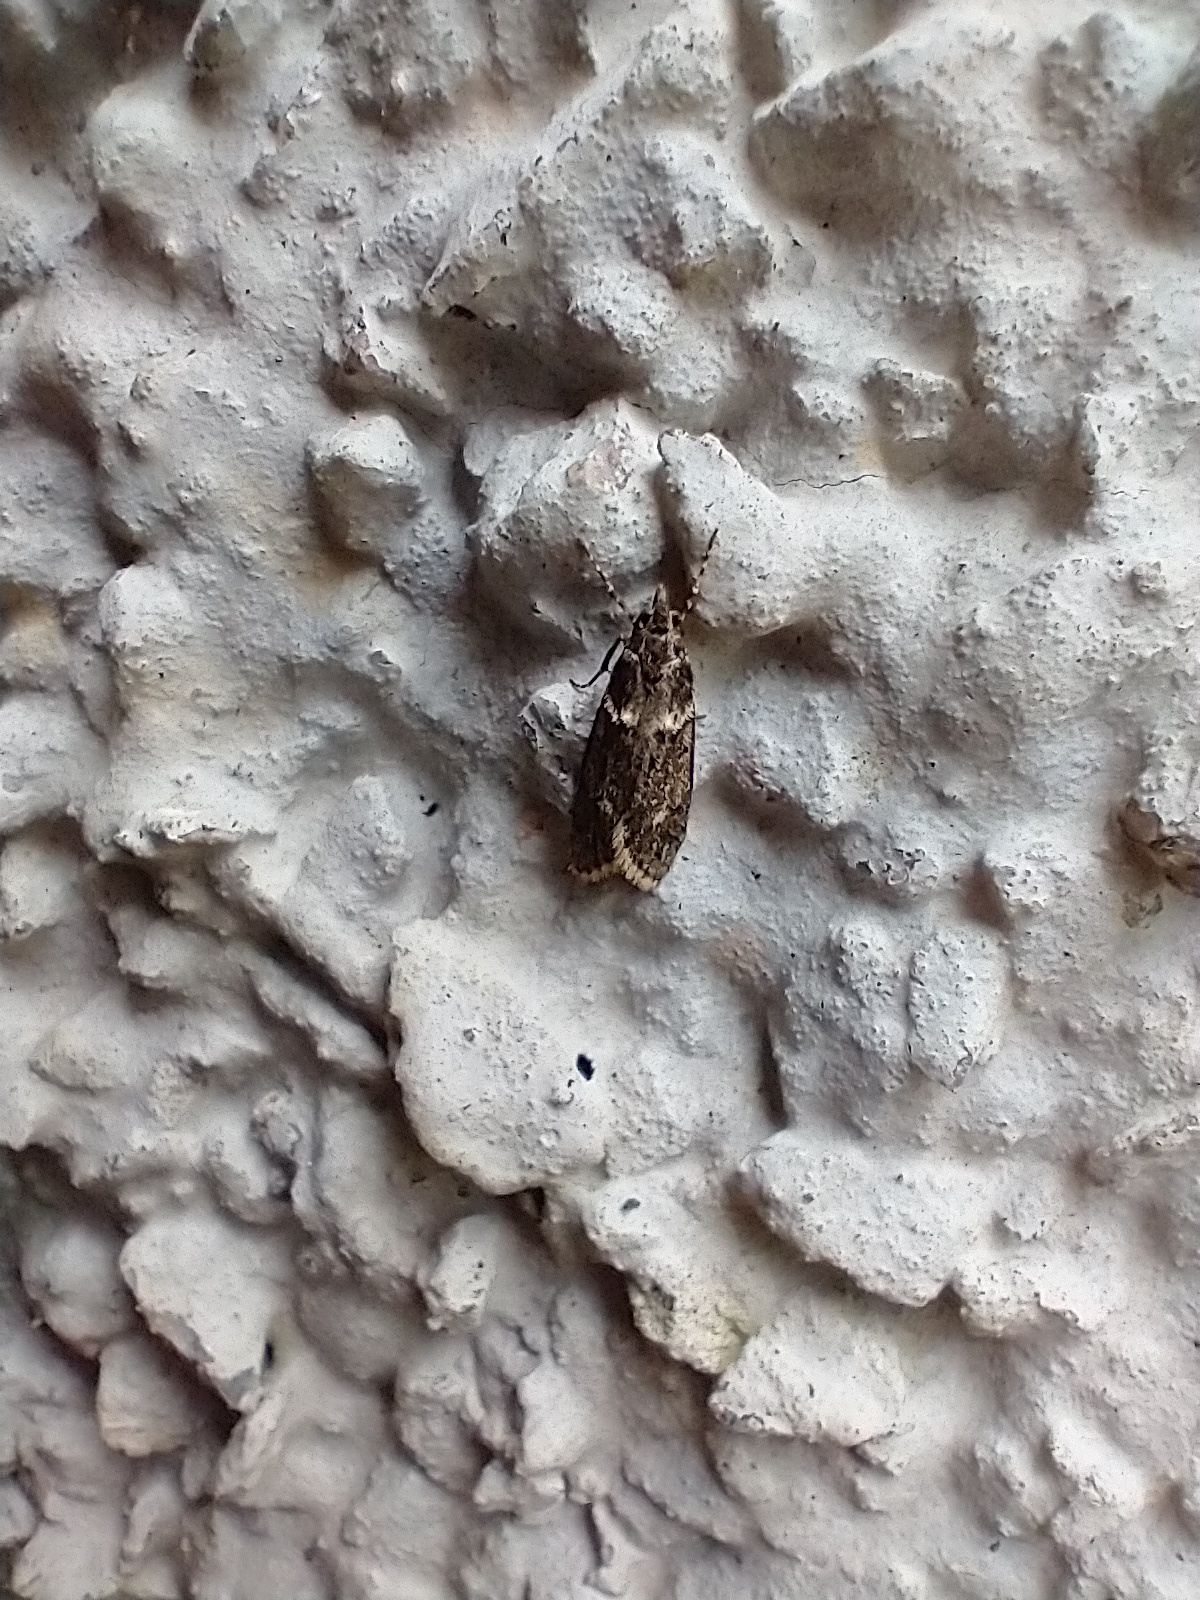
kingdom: Animalia
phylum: Arthropoda
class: Insecta
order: Lepidoptera
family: Lypusidae
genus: Diurnea
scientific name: Diurnea fagella
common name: March tubic
